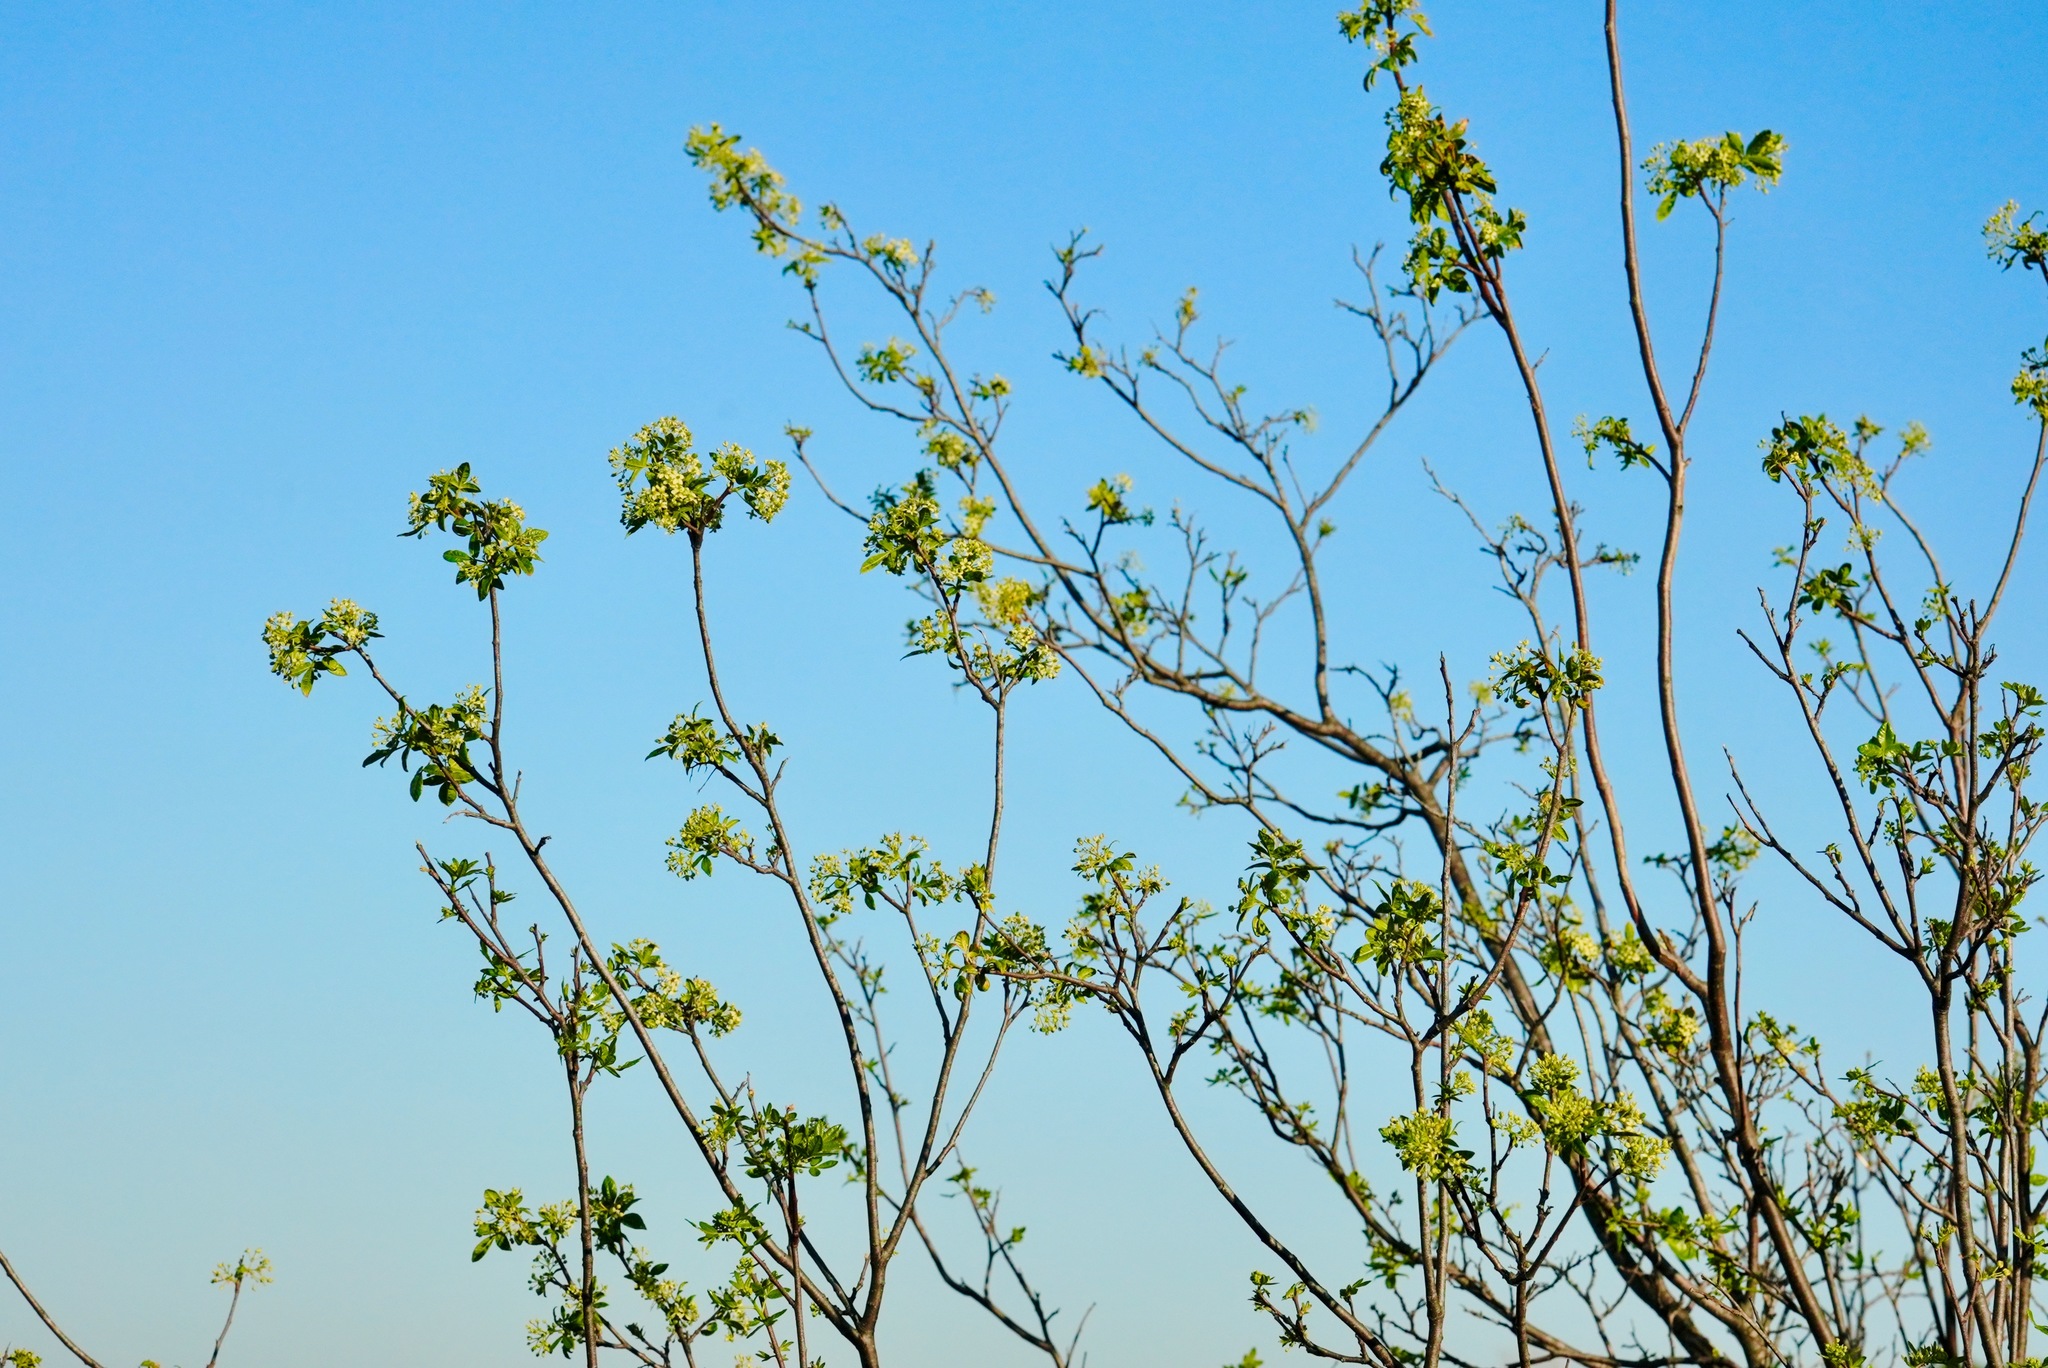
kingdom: Plantae
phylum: Tracheophyta
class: Magnoliopsida
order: Sapindales
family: Rutaceae
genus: Ptelea
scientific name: Ptelea crenulata
